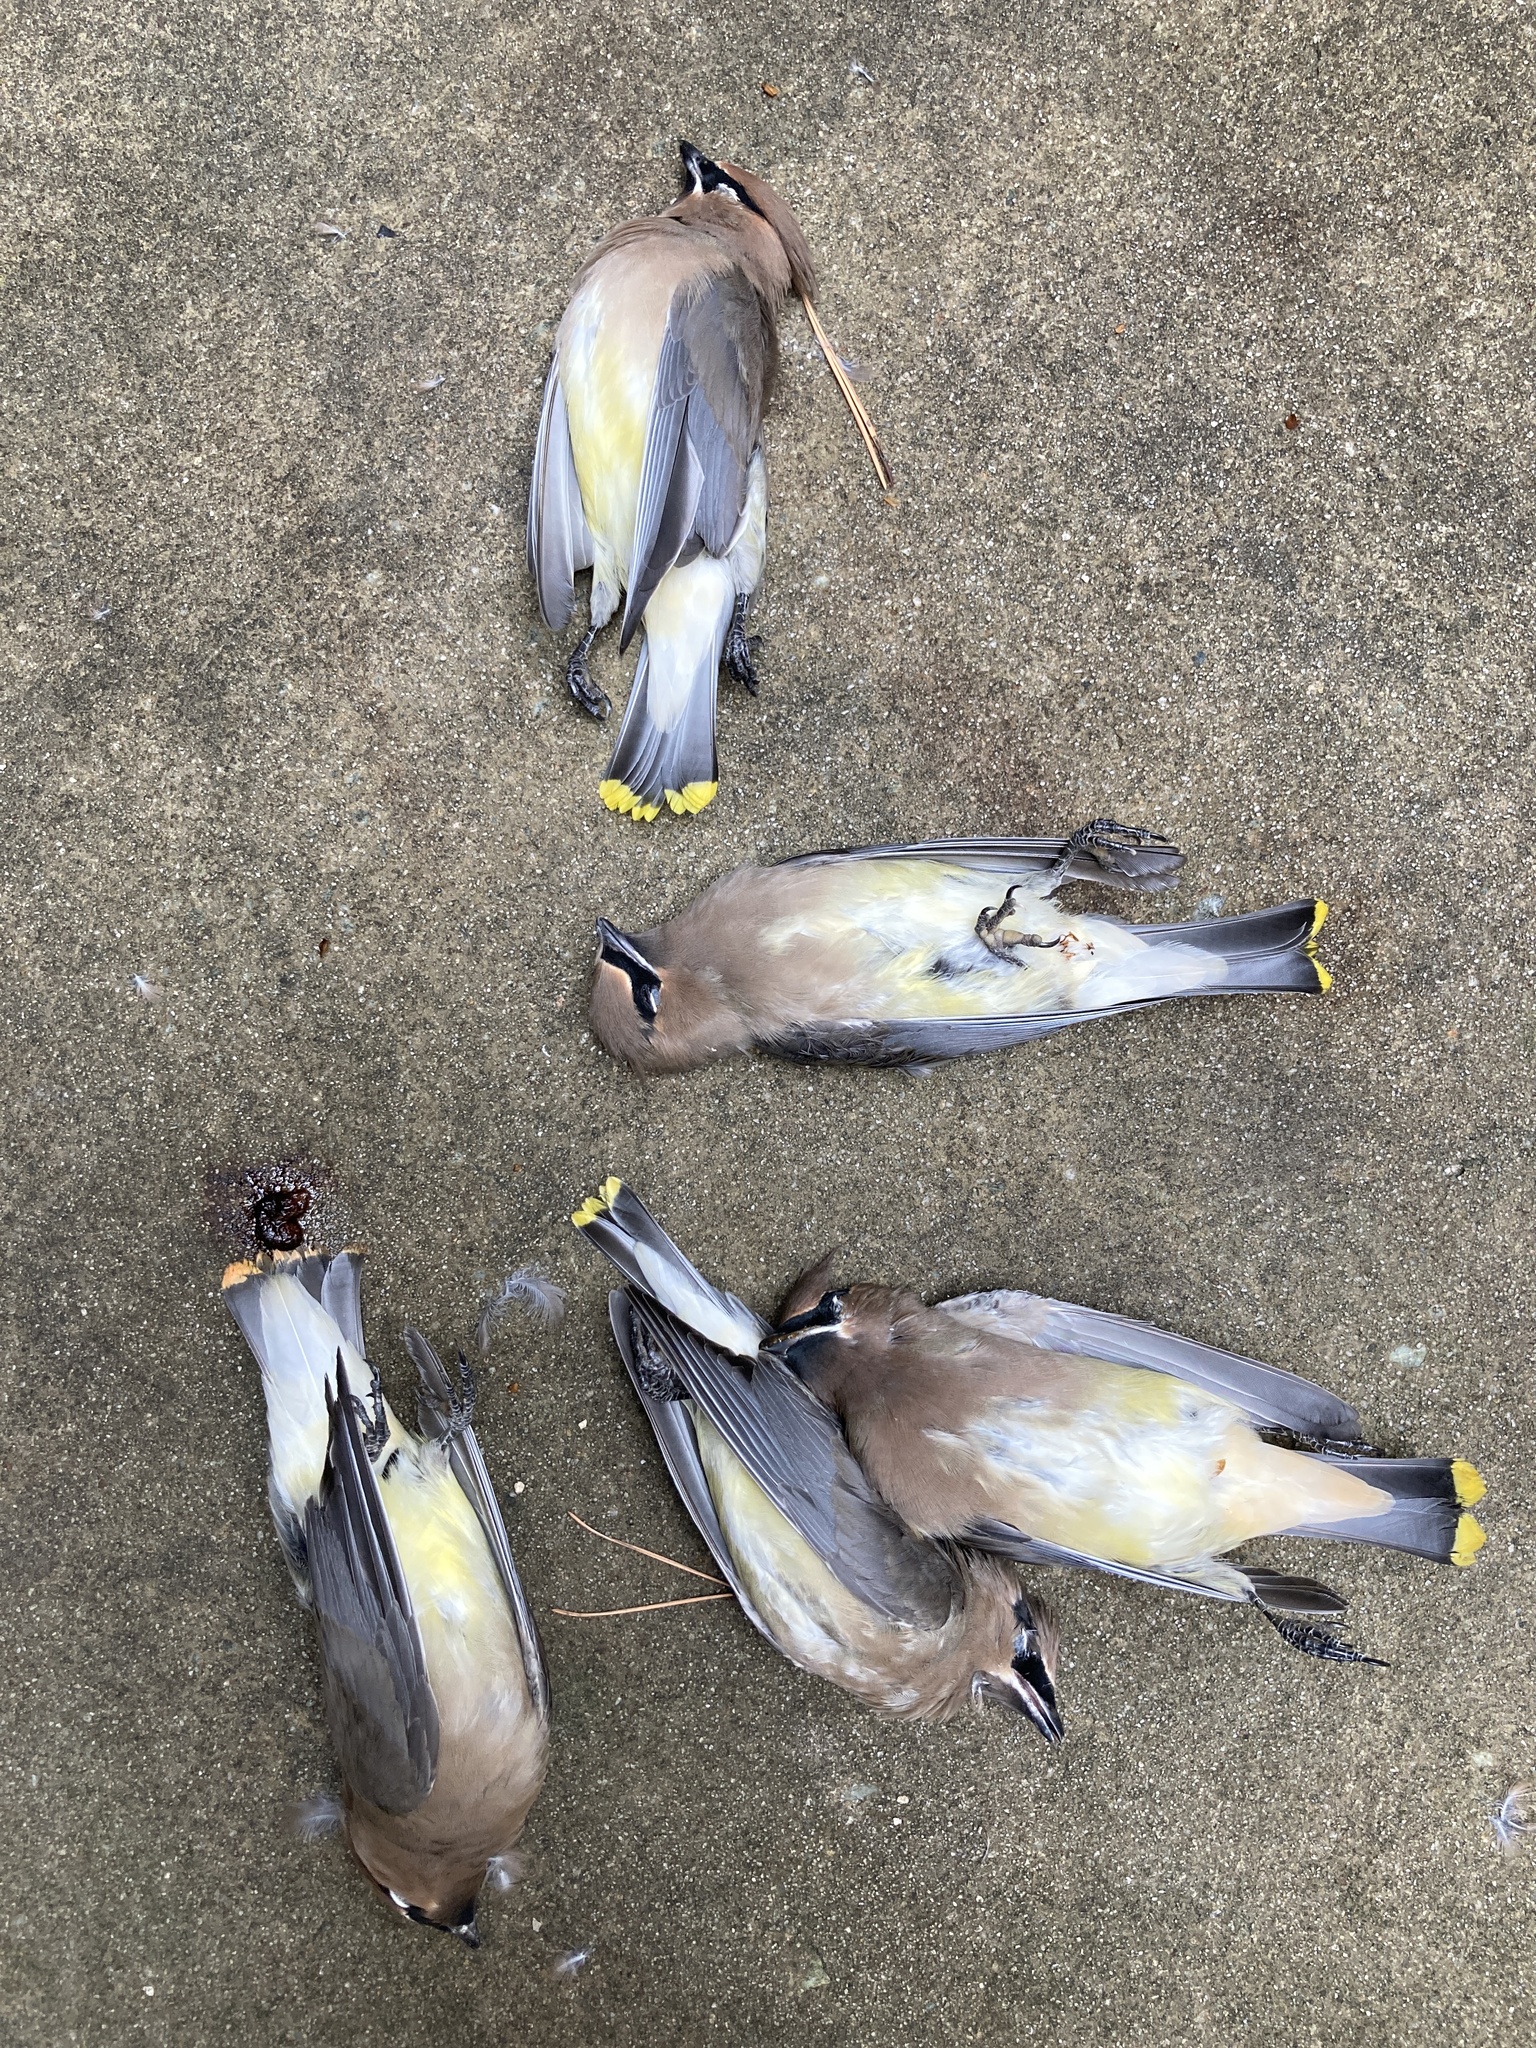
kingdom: Animalia
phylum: Chordata
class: Aves
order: Passeriformes
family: Bombycillidae
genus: Bombycilla
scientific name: Bombycilla cedrorum
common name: Cedar waxwing
